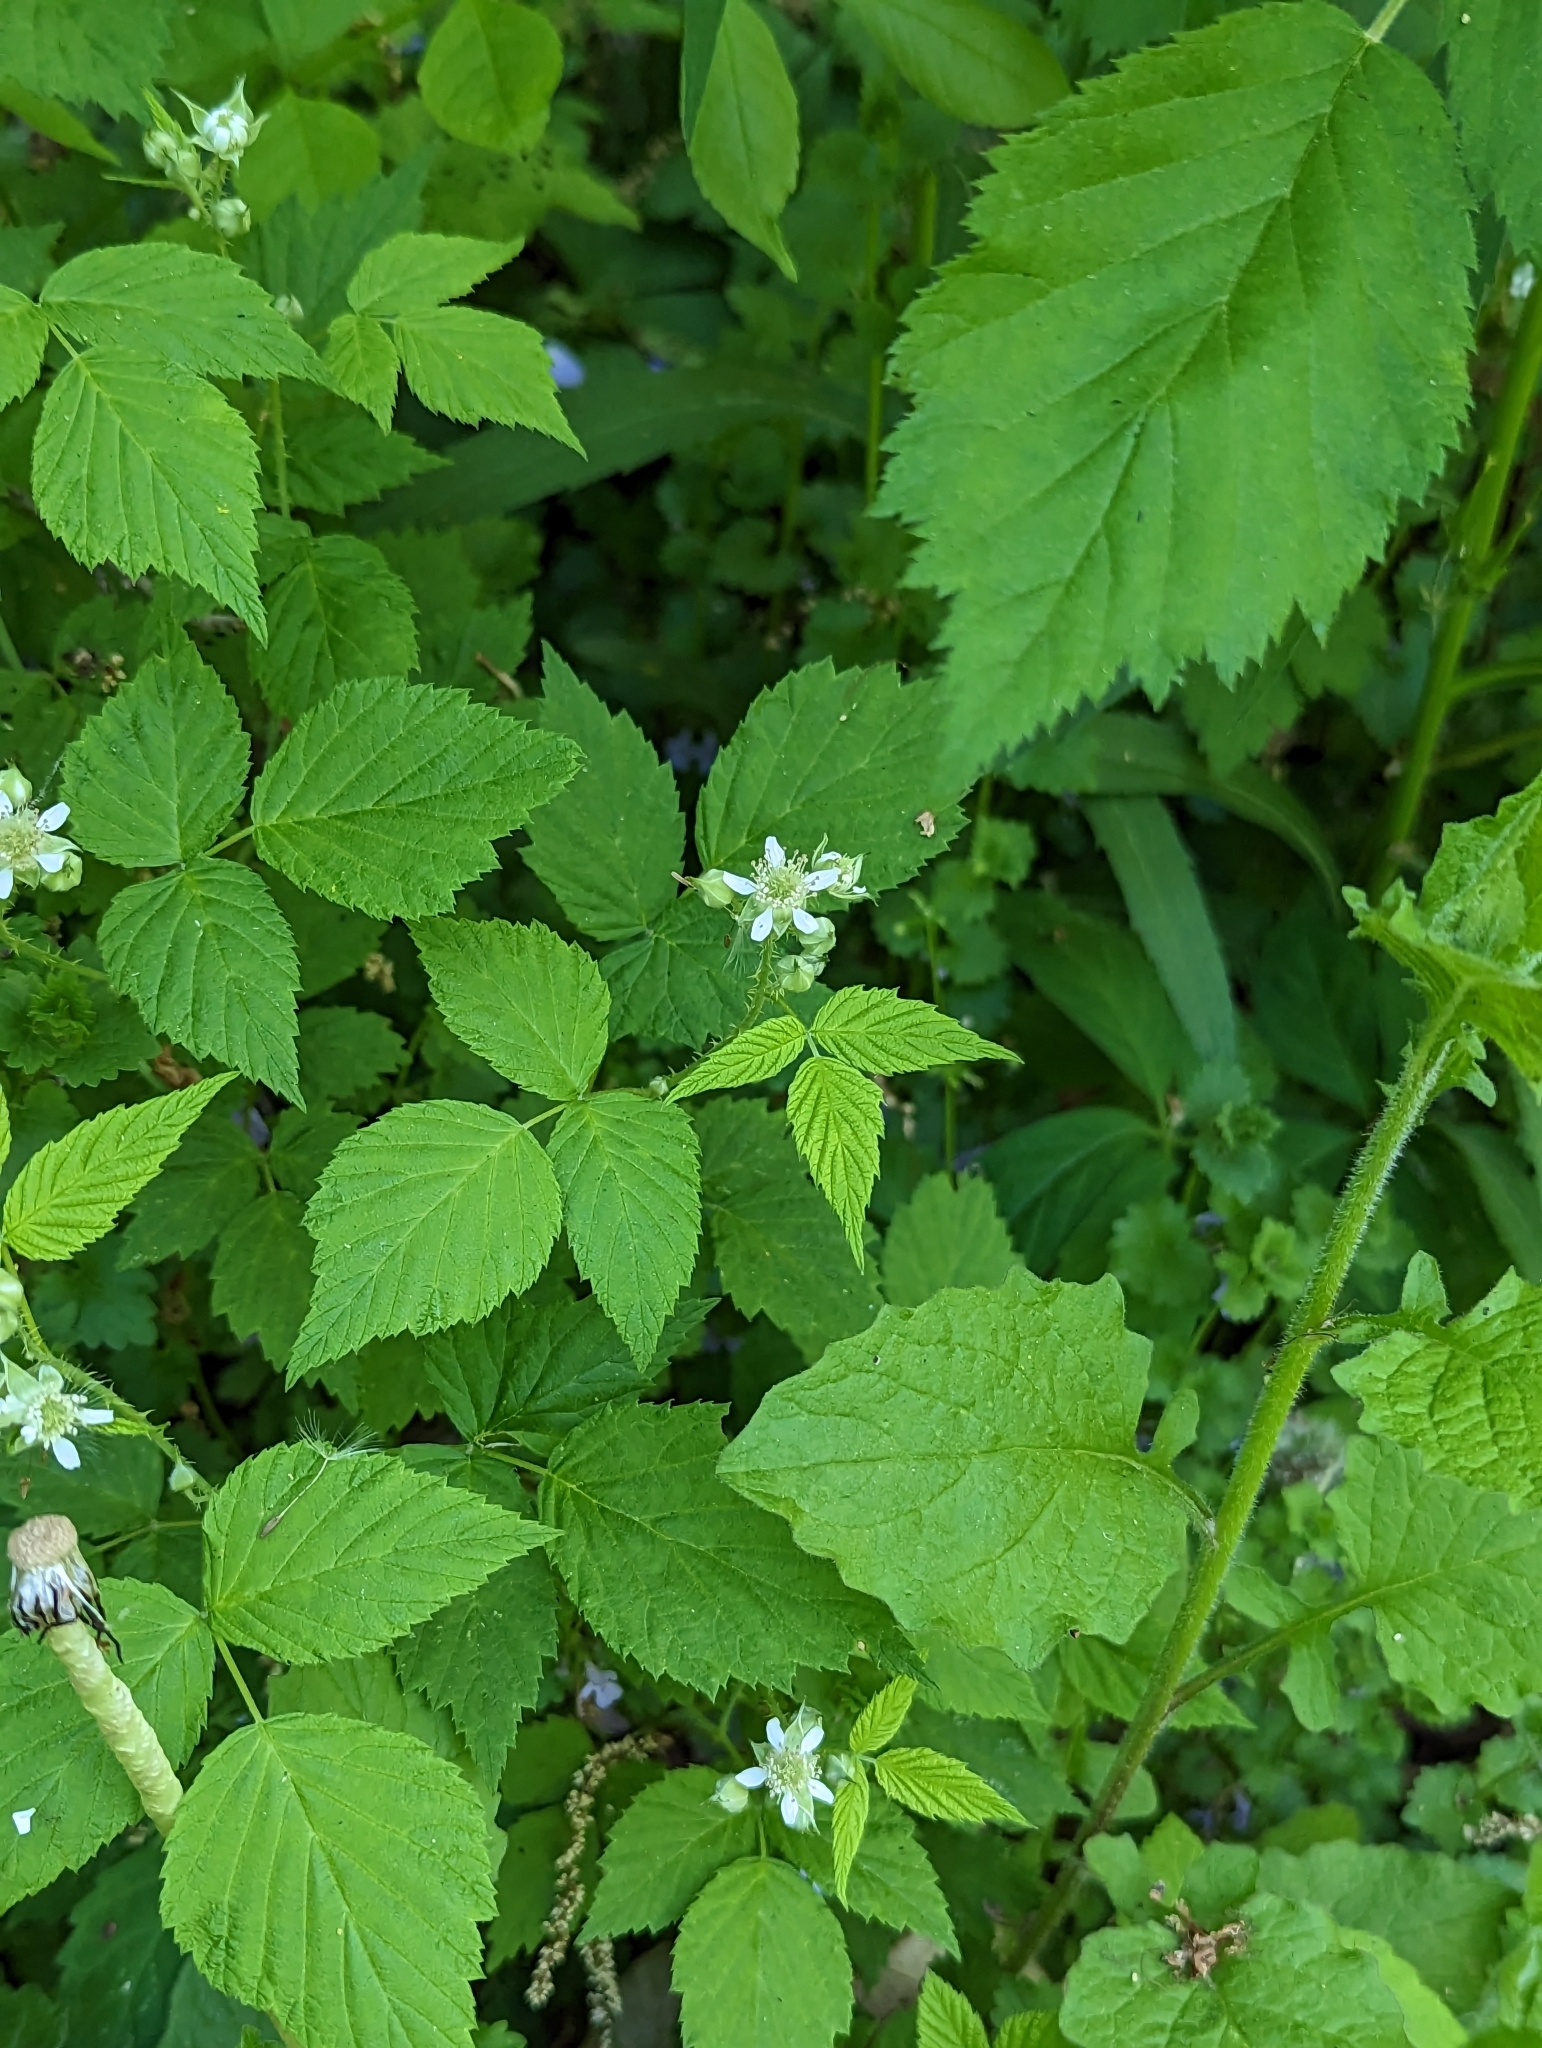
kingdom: Plantae
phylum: Tracheophyta
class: Magnoliopsida
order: Rosales
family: Rosaceae
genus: Rubus
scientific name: Rubus occidentalis
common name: Black raspberry
